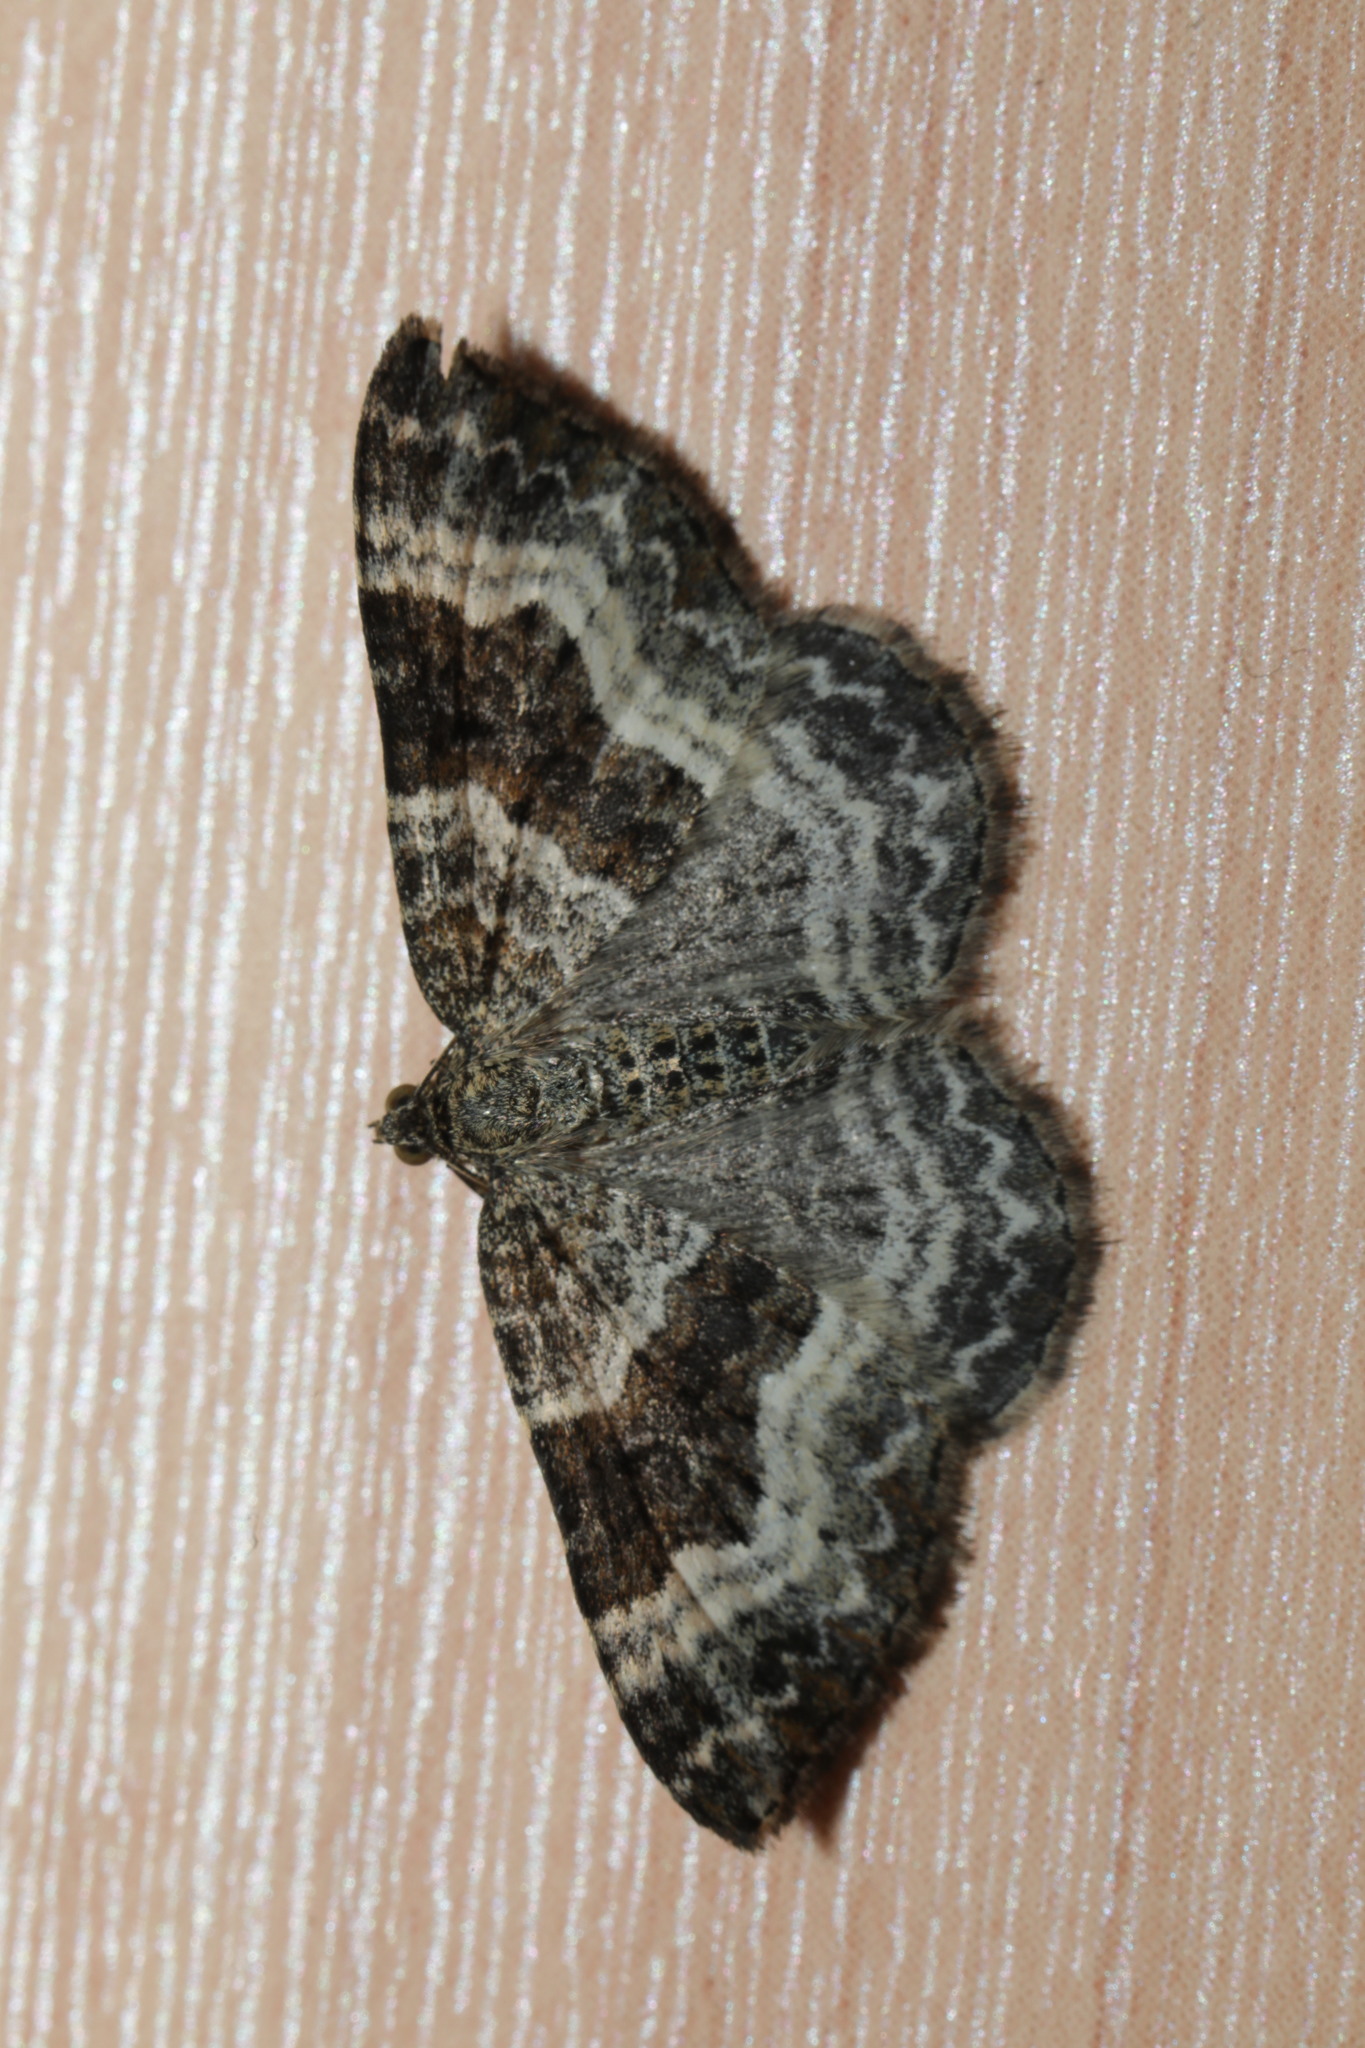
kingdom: Animalia
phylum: Arthropoda
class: Insecta
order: Lepidoptera
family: Geometridae
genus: Epirrhoe
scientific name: Epirrhoe alternata
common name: Common carpet
